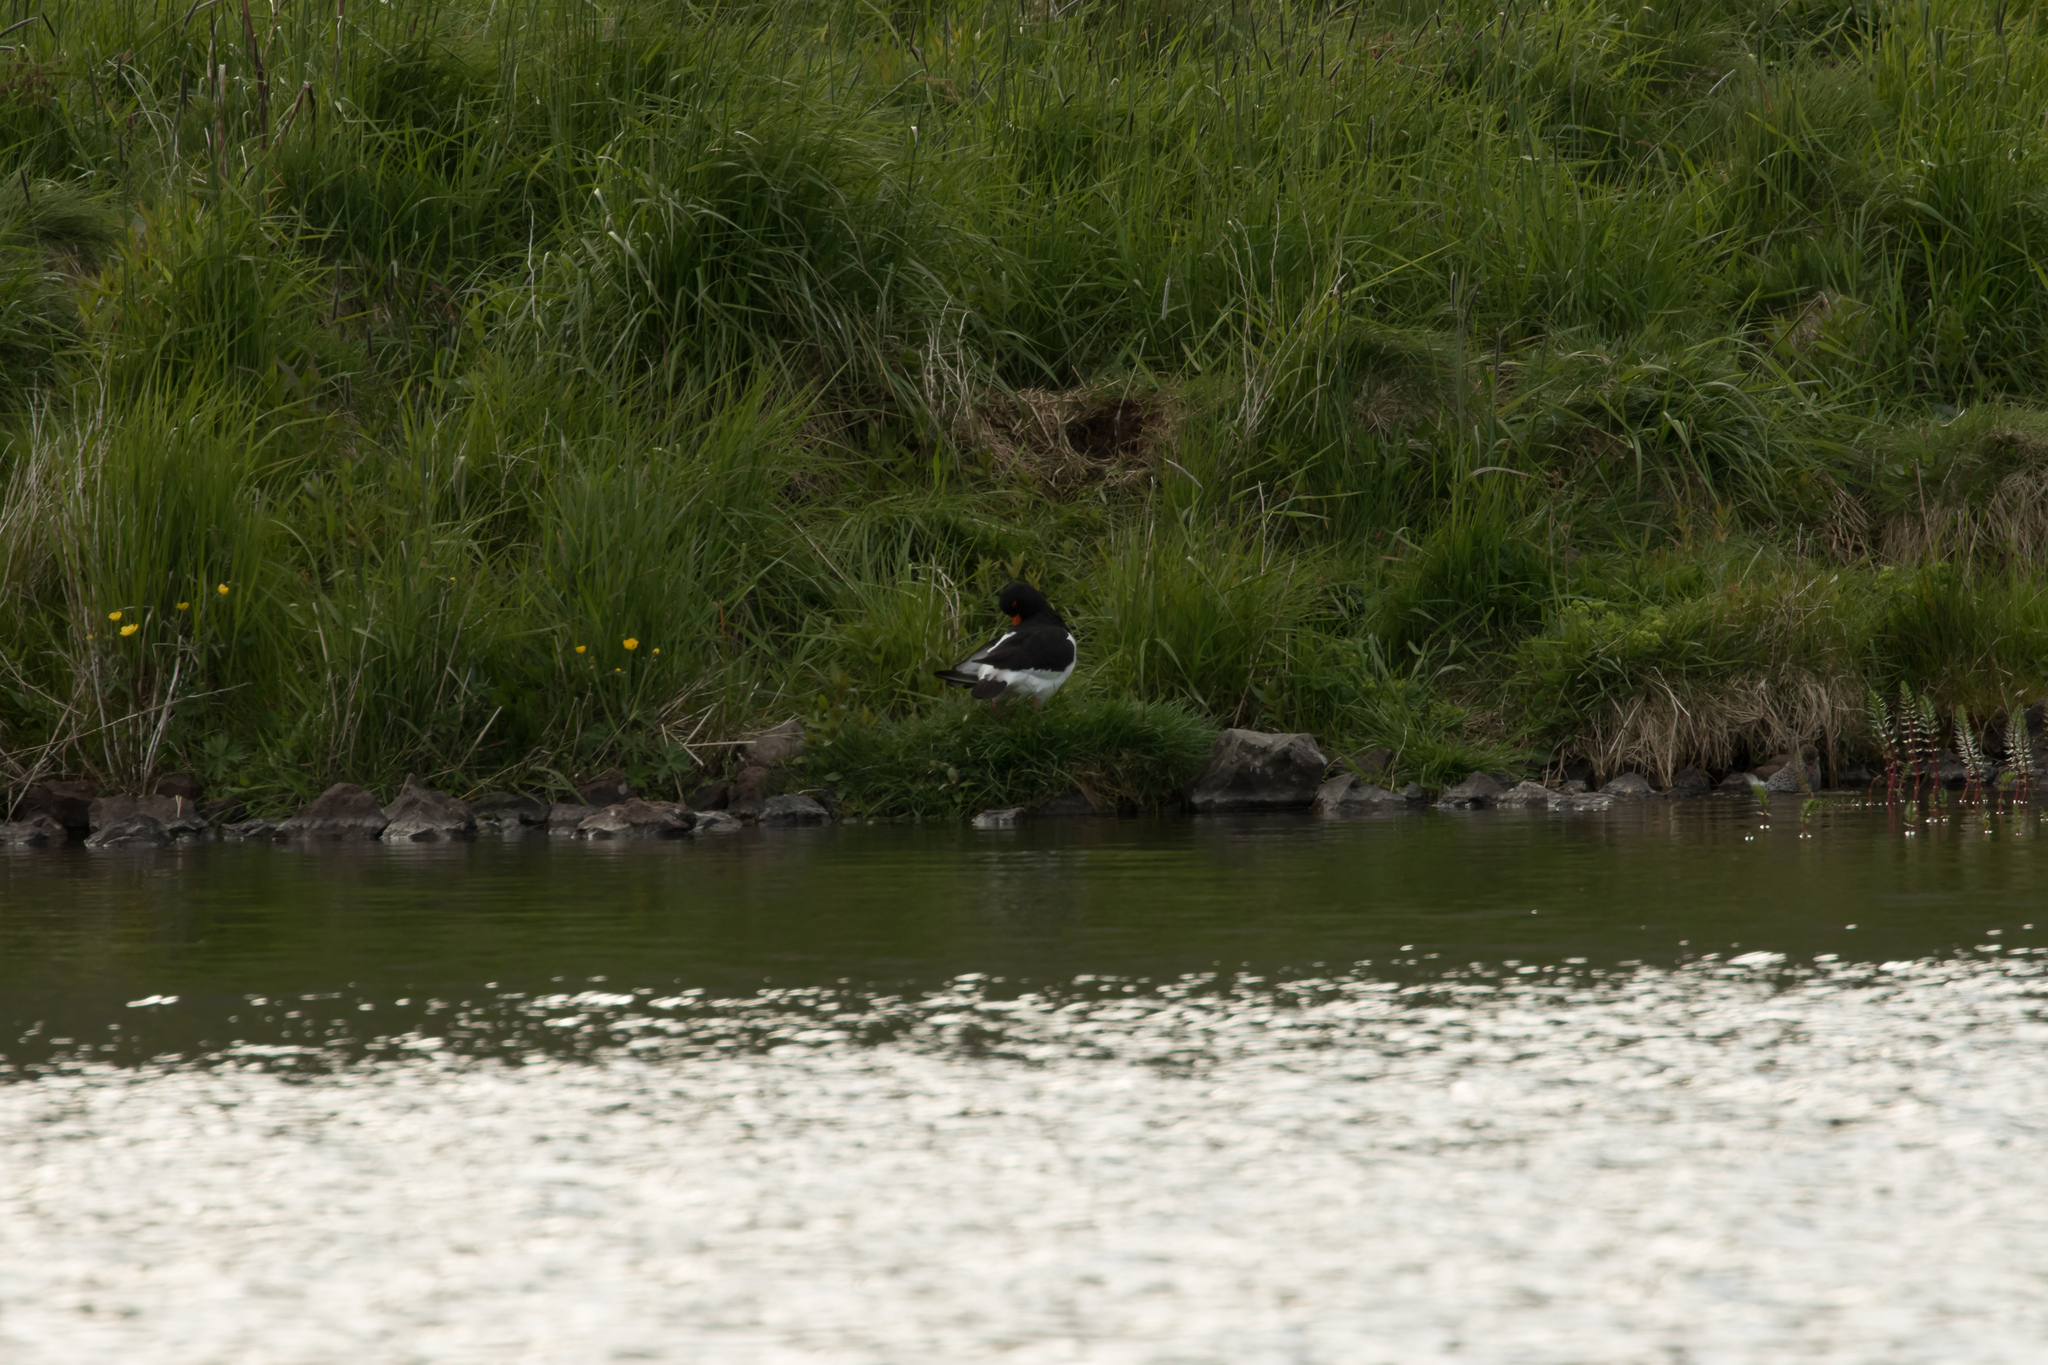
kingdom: Animalia
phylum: Chordata
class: Aves
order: Charadriiformes
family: Haematopodidae
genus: Haematopus
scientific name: Haematopus ostralegus
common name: Eurasian oystercatcher
